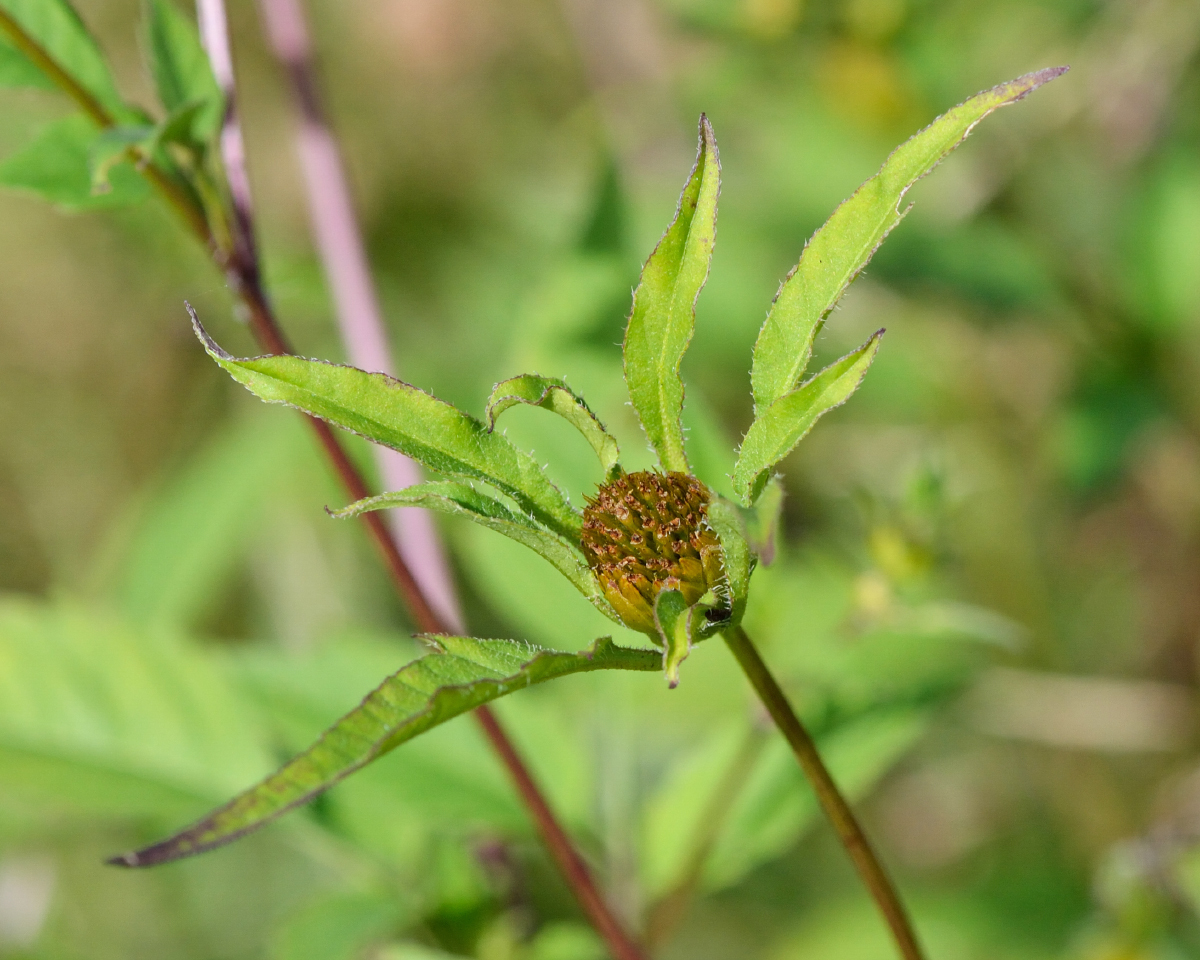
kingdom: Plantae
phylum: Tracheophyta
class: Magnoliopsida
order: Asterales
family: Asteraceae
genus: Bidens
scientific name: Bidens frondosa
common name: Beggarticks
